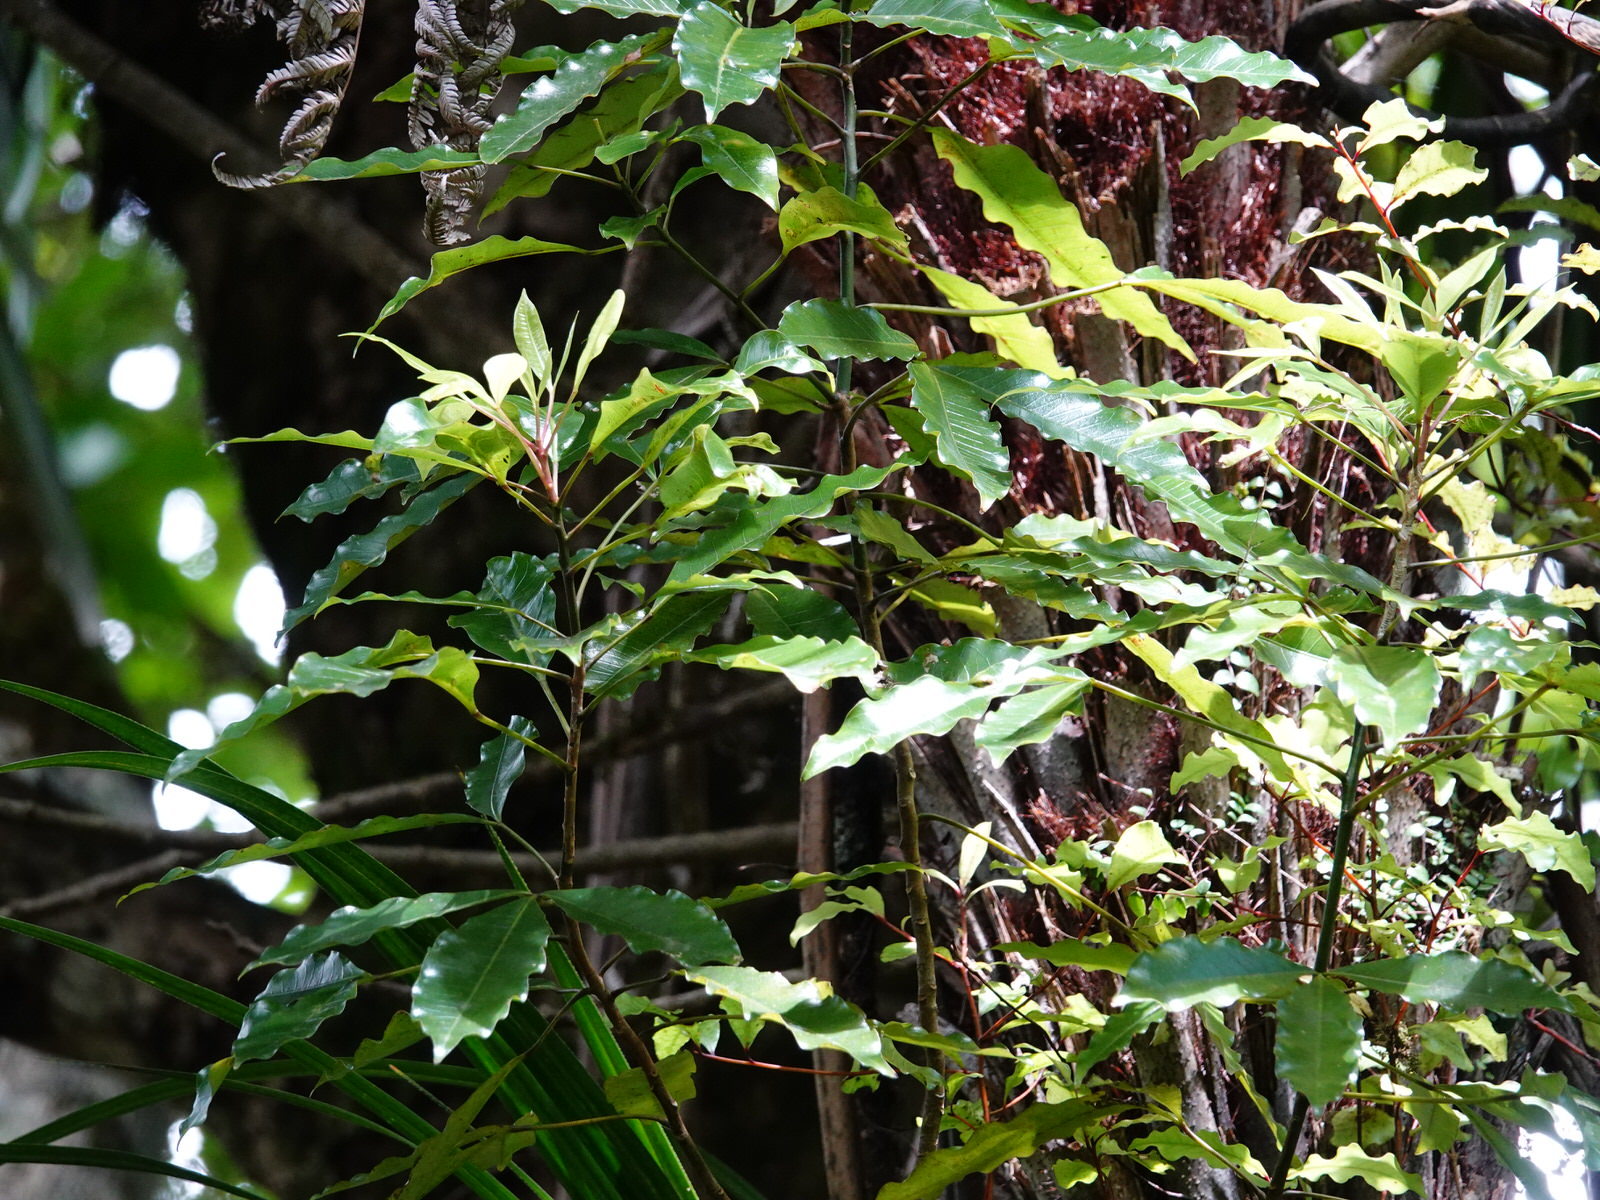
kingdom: Plantae
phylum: Tracheophyta
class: Magnoliopsida
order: Apiales
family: Araliaceae
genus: Raukaua
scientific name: Raukaua edgerleyi
